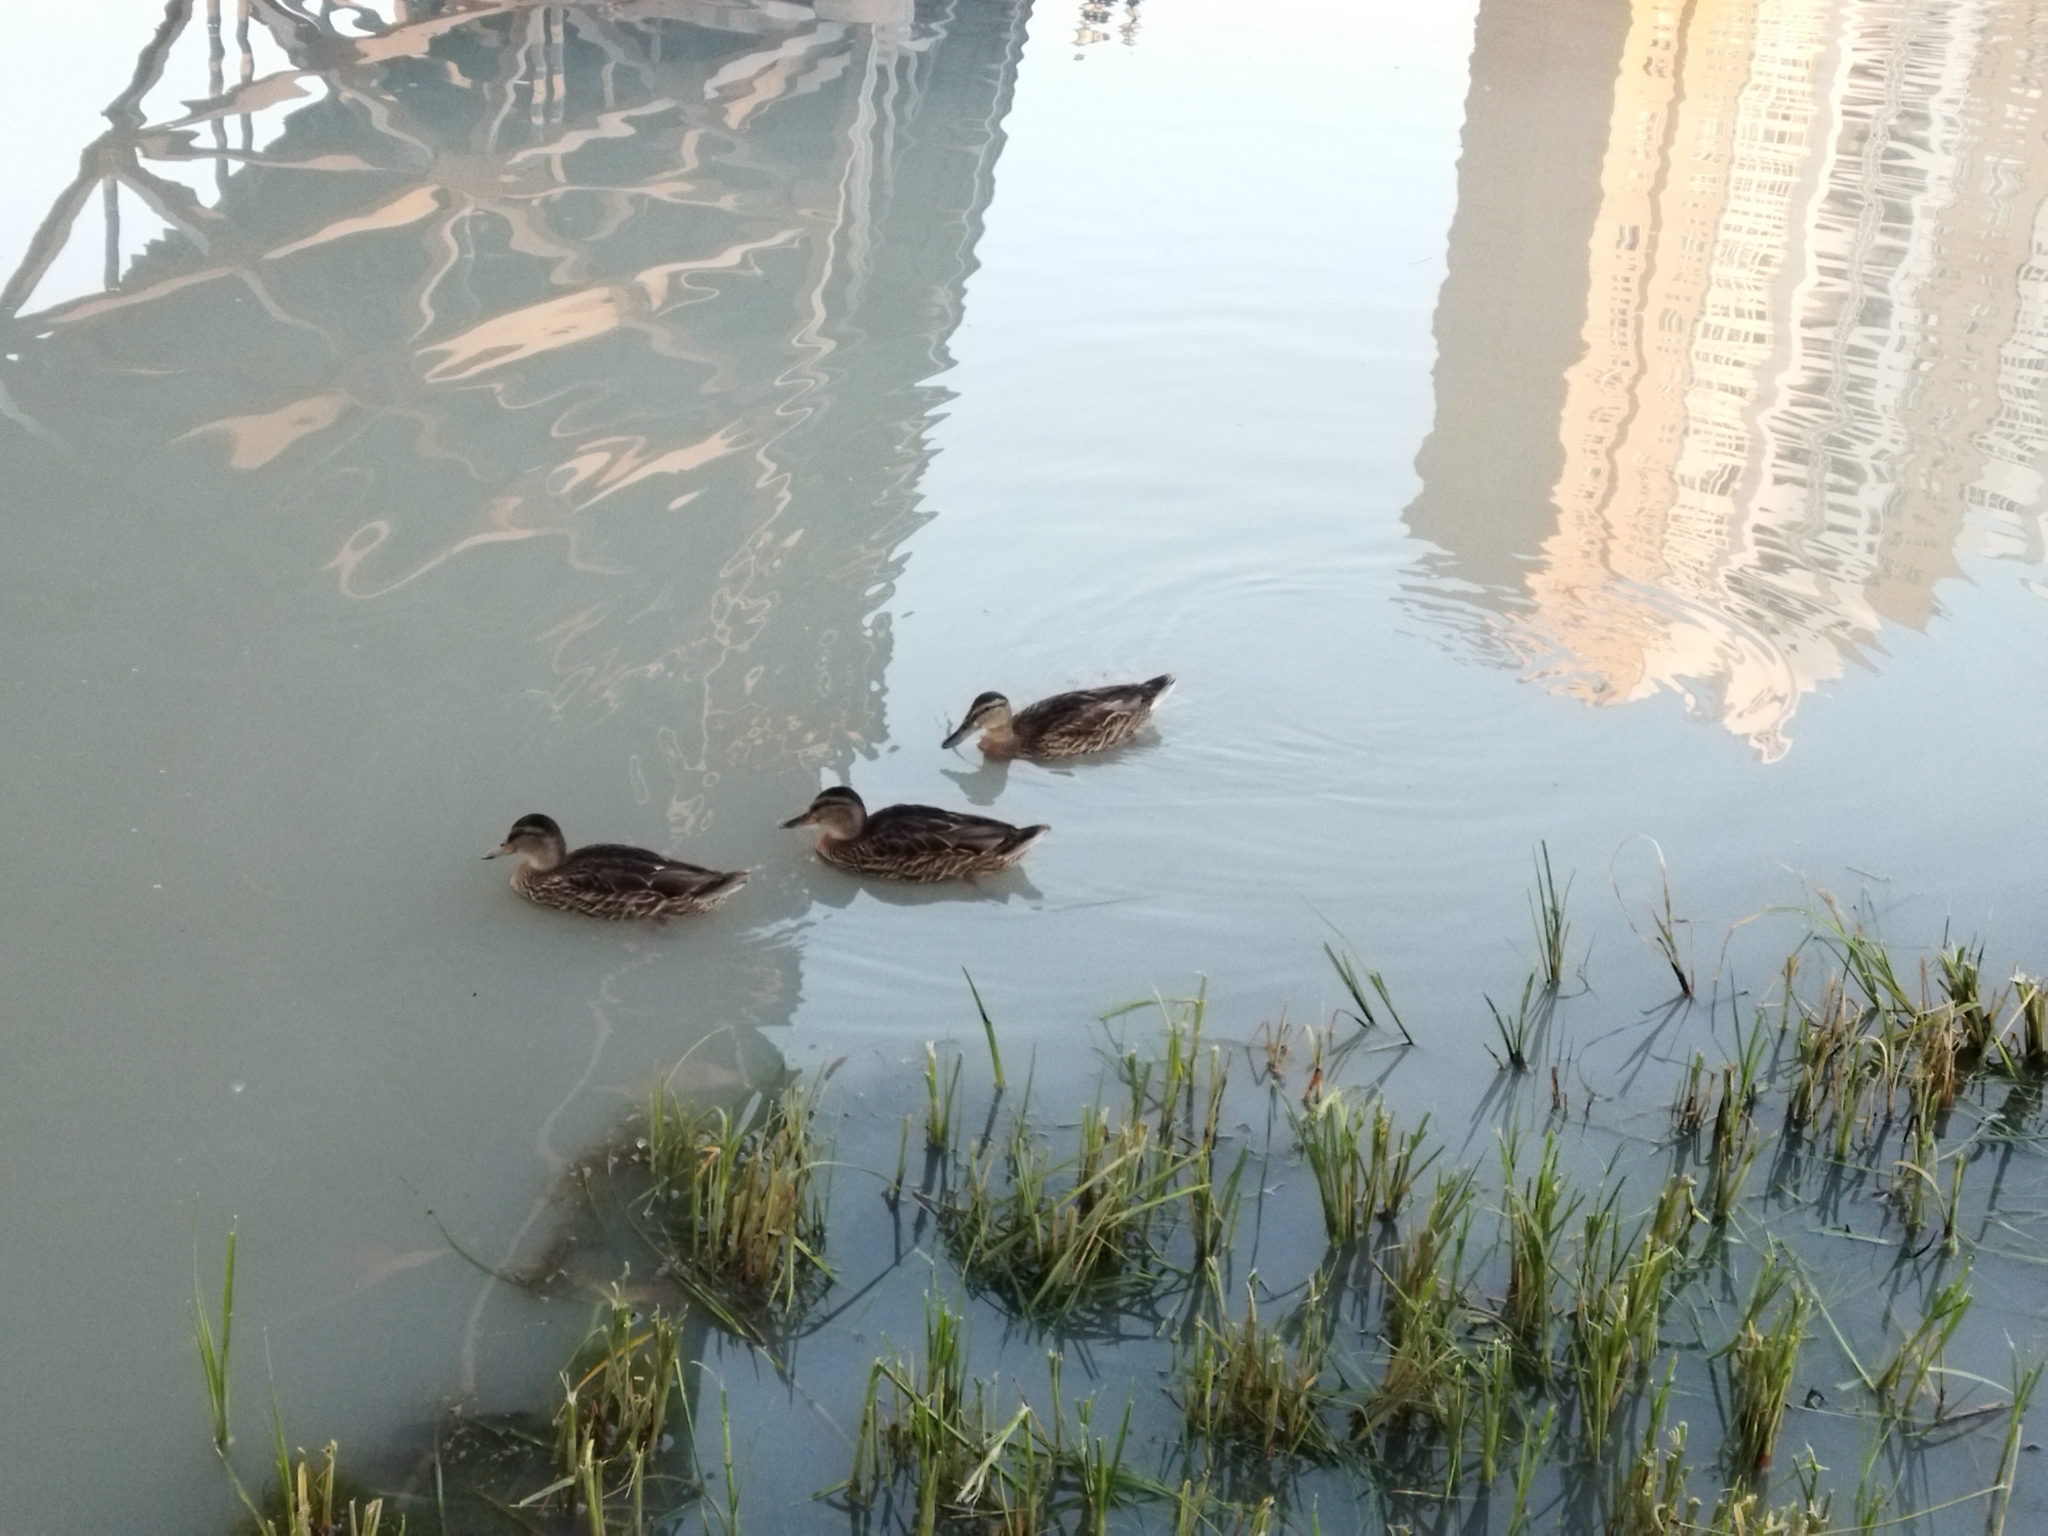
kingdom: Animalia
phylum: Chordata
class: Aves
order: Anseriformes
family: Anatidae
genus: Anas
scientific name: Anas platyrhynchos
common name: Mallard
